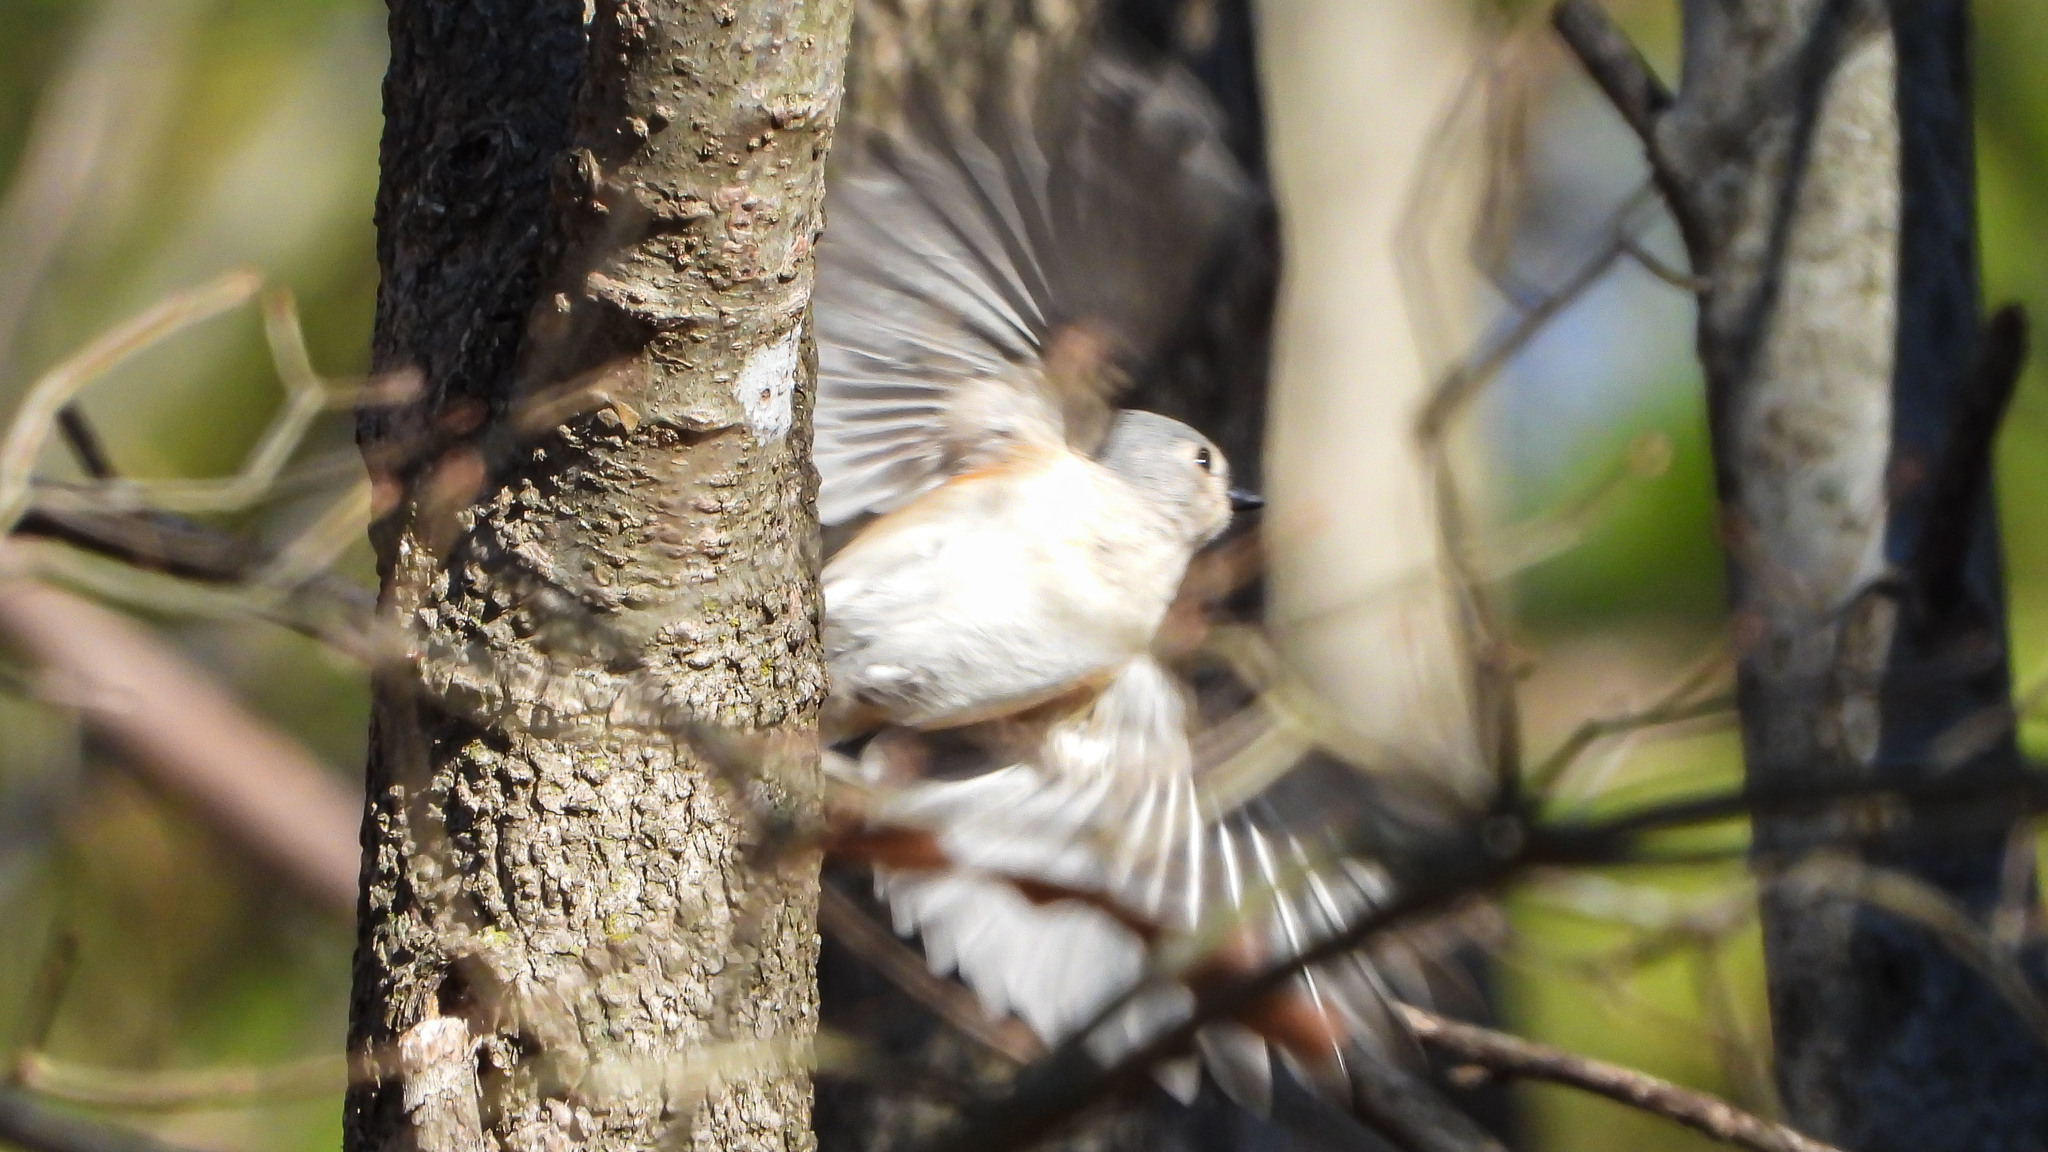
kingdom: Animalia
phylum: Chordata
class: Aves
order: Passeriformes
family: Paridae
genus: Baeolophus
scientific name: Baeolophus bicolor
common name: Tufted titmouse
